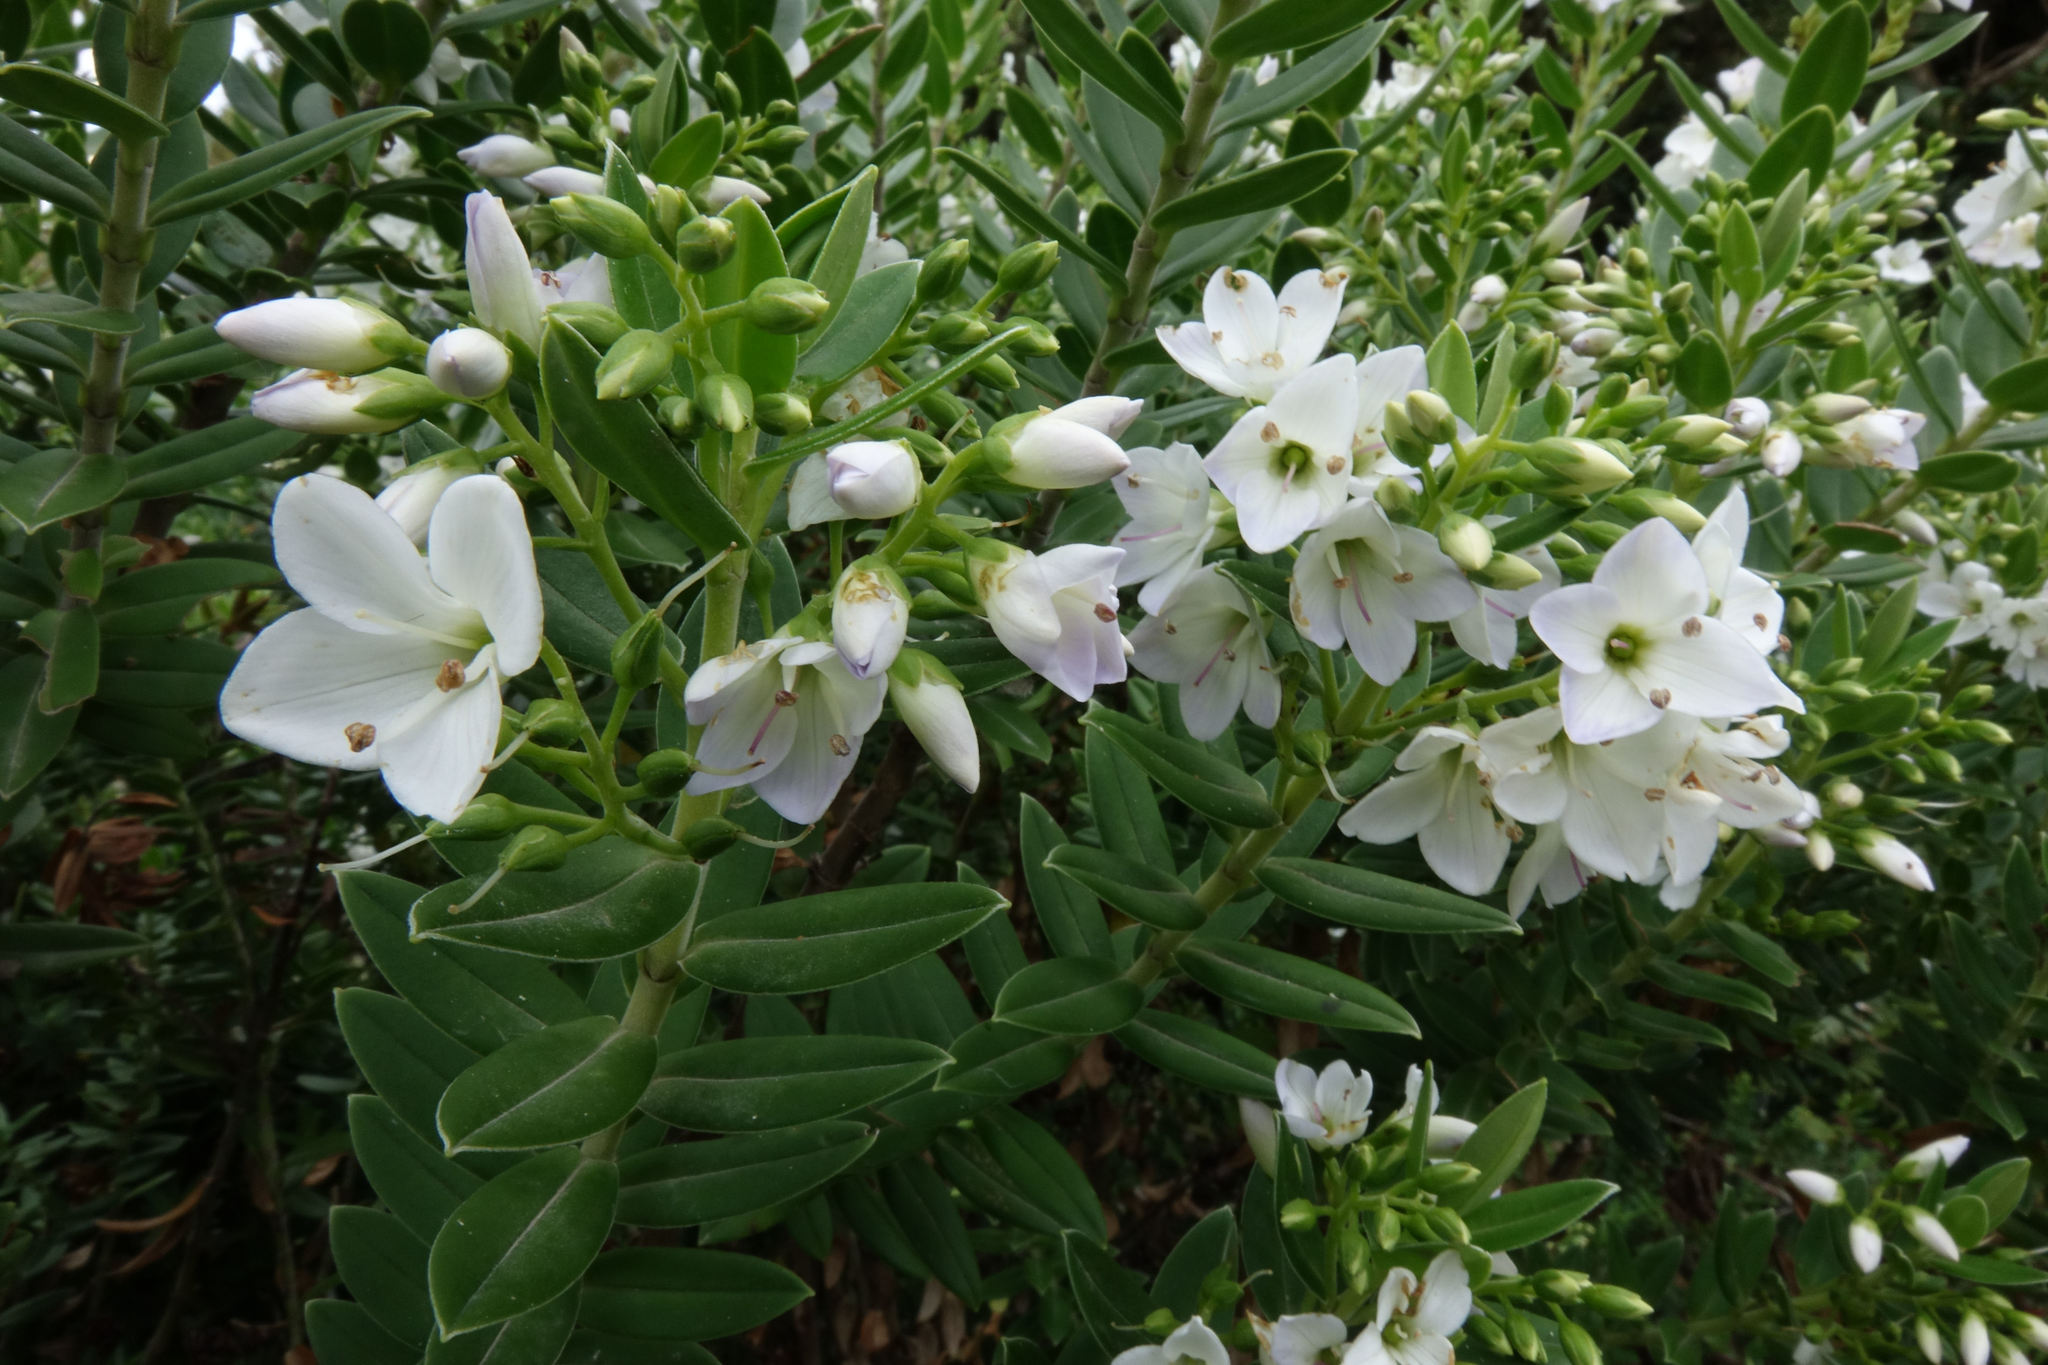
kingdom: Plantae
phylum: Tracheophyta
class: Magnoliopsida
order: Lamiales
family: Plantaginaceae
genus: Veronica
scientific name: Veronica elliptica
